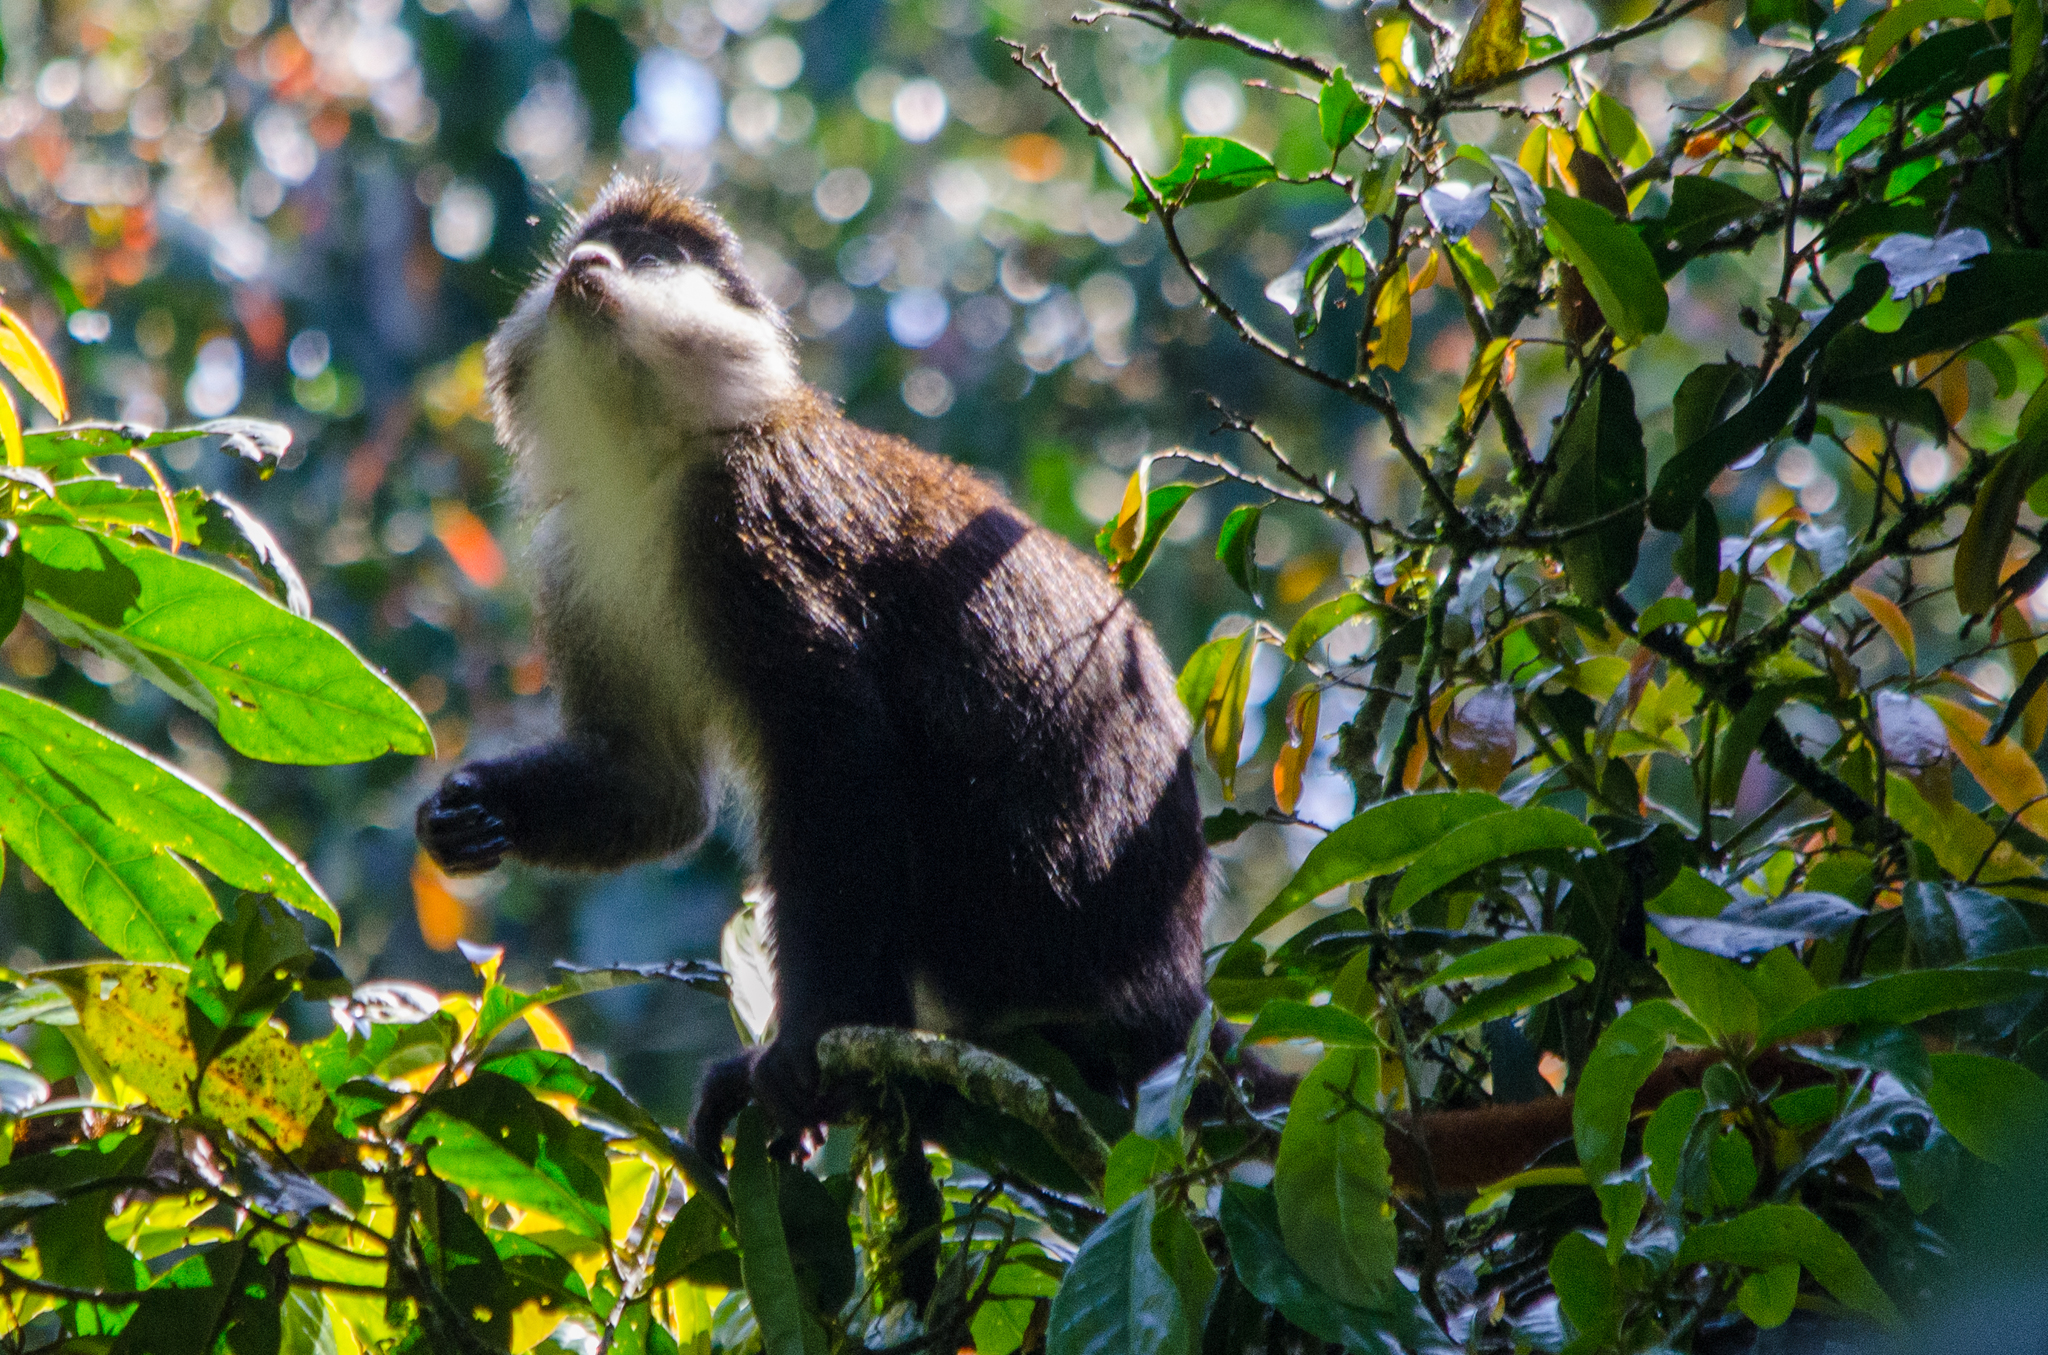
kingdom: Animalia
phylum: Chordata
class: Mammalia
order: Primates
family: Cercopithecidae
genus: Cercopithecus
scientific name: Cercopithecus ascanius
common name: Red-tailed monkey
